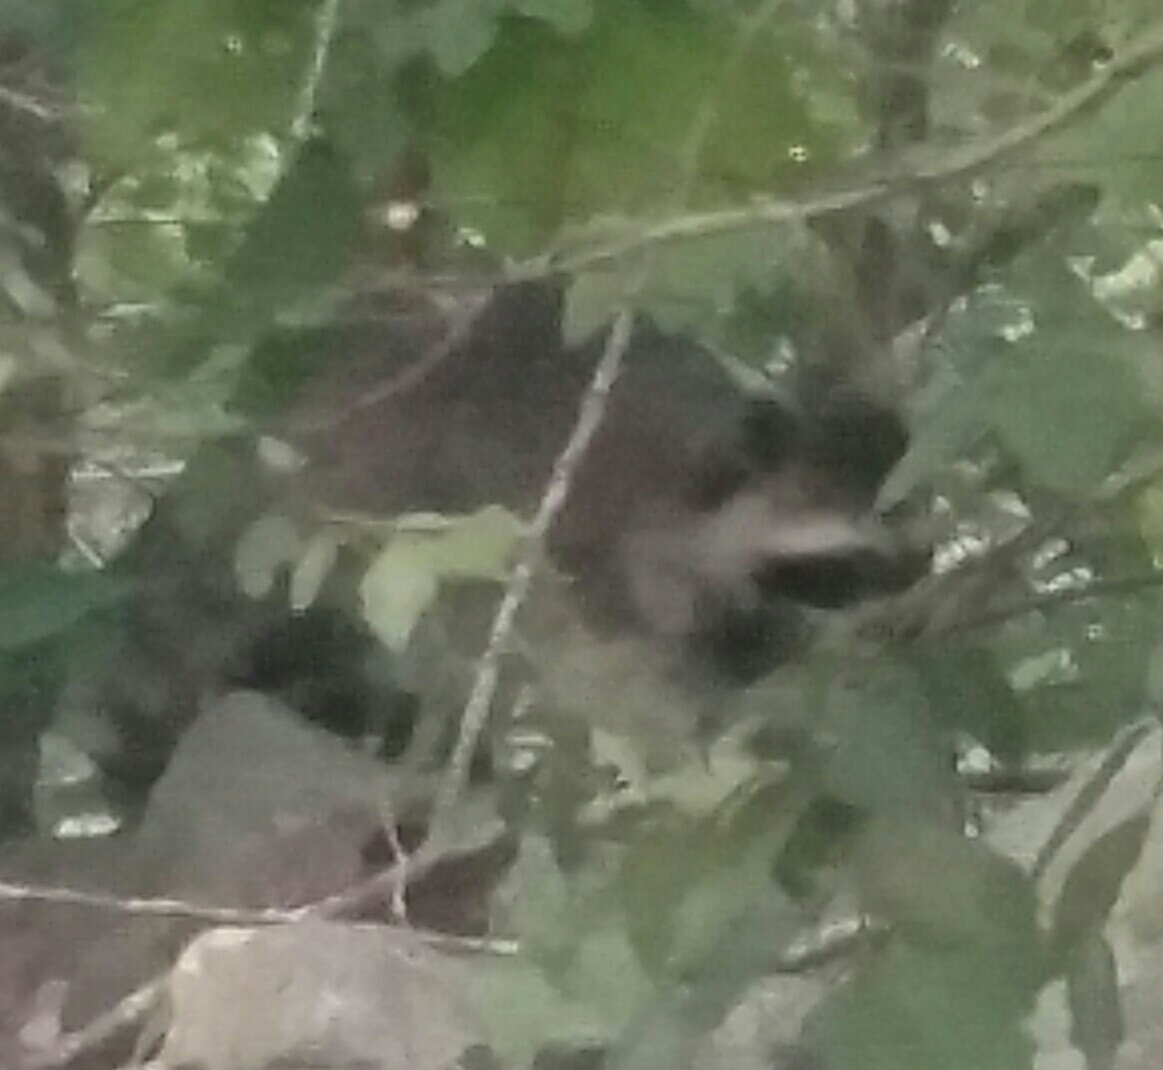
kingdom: Animalia
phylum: Chordata
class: Mammalia
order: Carnivora
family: Procyonidae
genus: Procyon
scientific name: Procyon lotor
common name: Raccoon
